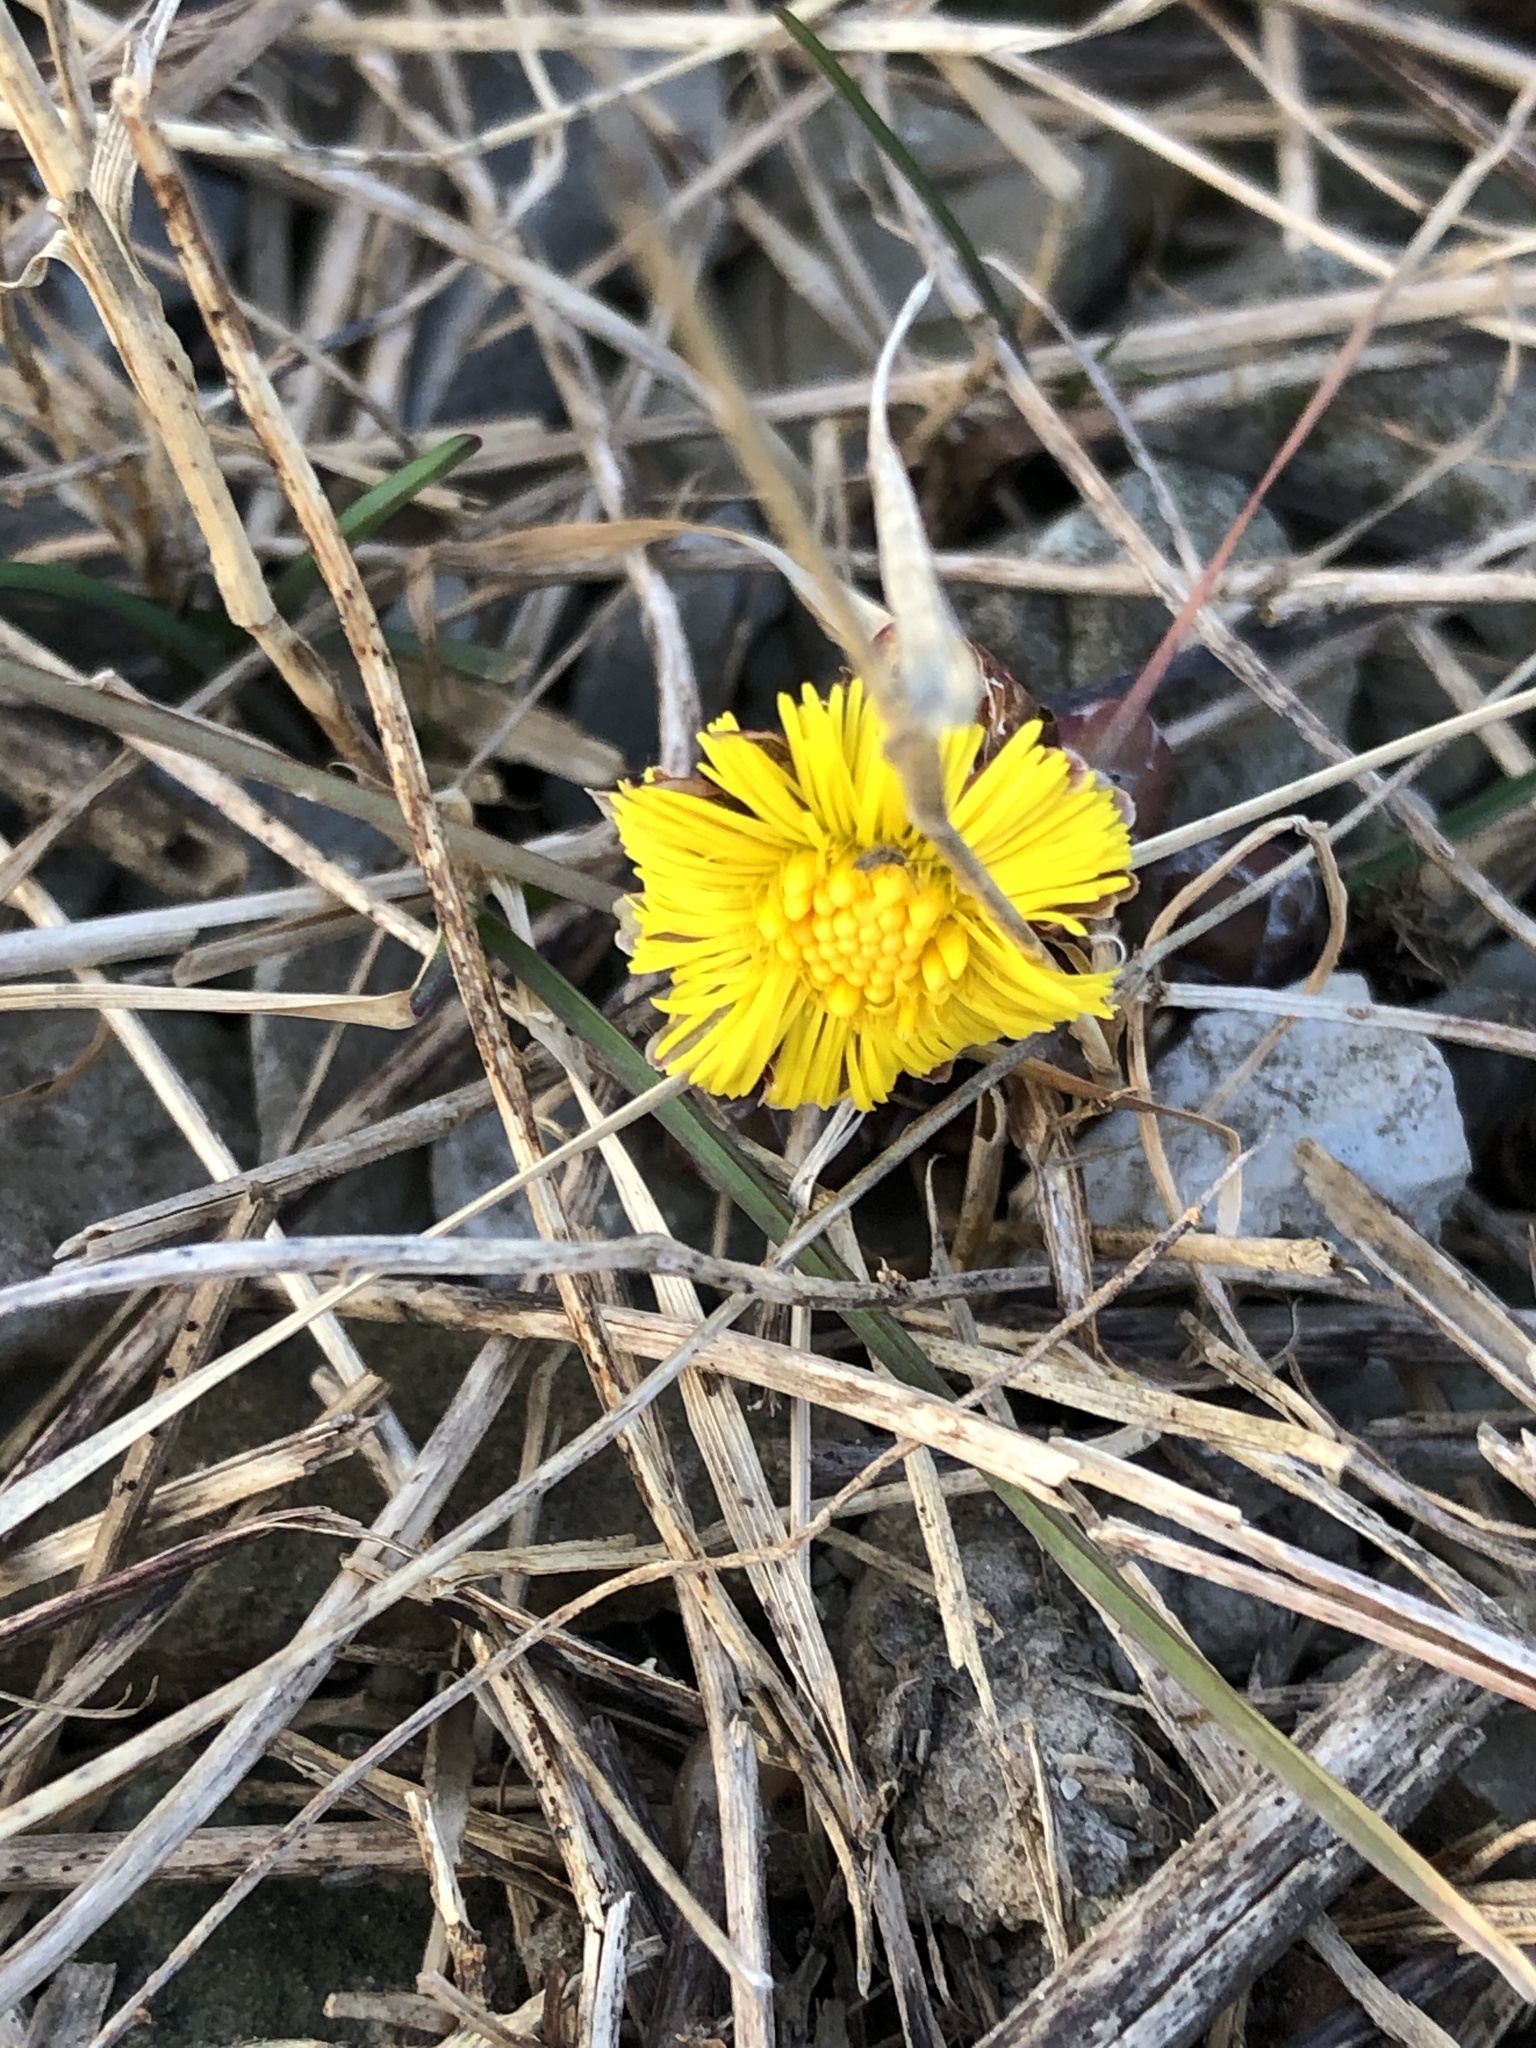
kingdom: Plantae
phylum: Tracheophyta
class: Magnoliopsida
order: Asterales
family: Asteraceae
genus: Tussilago
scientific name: Tussilago farfara
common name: Coltsfoot
